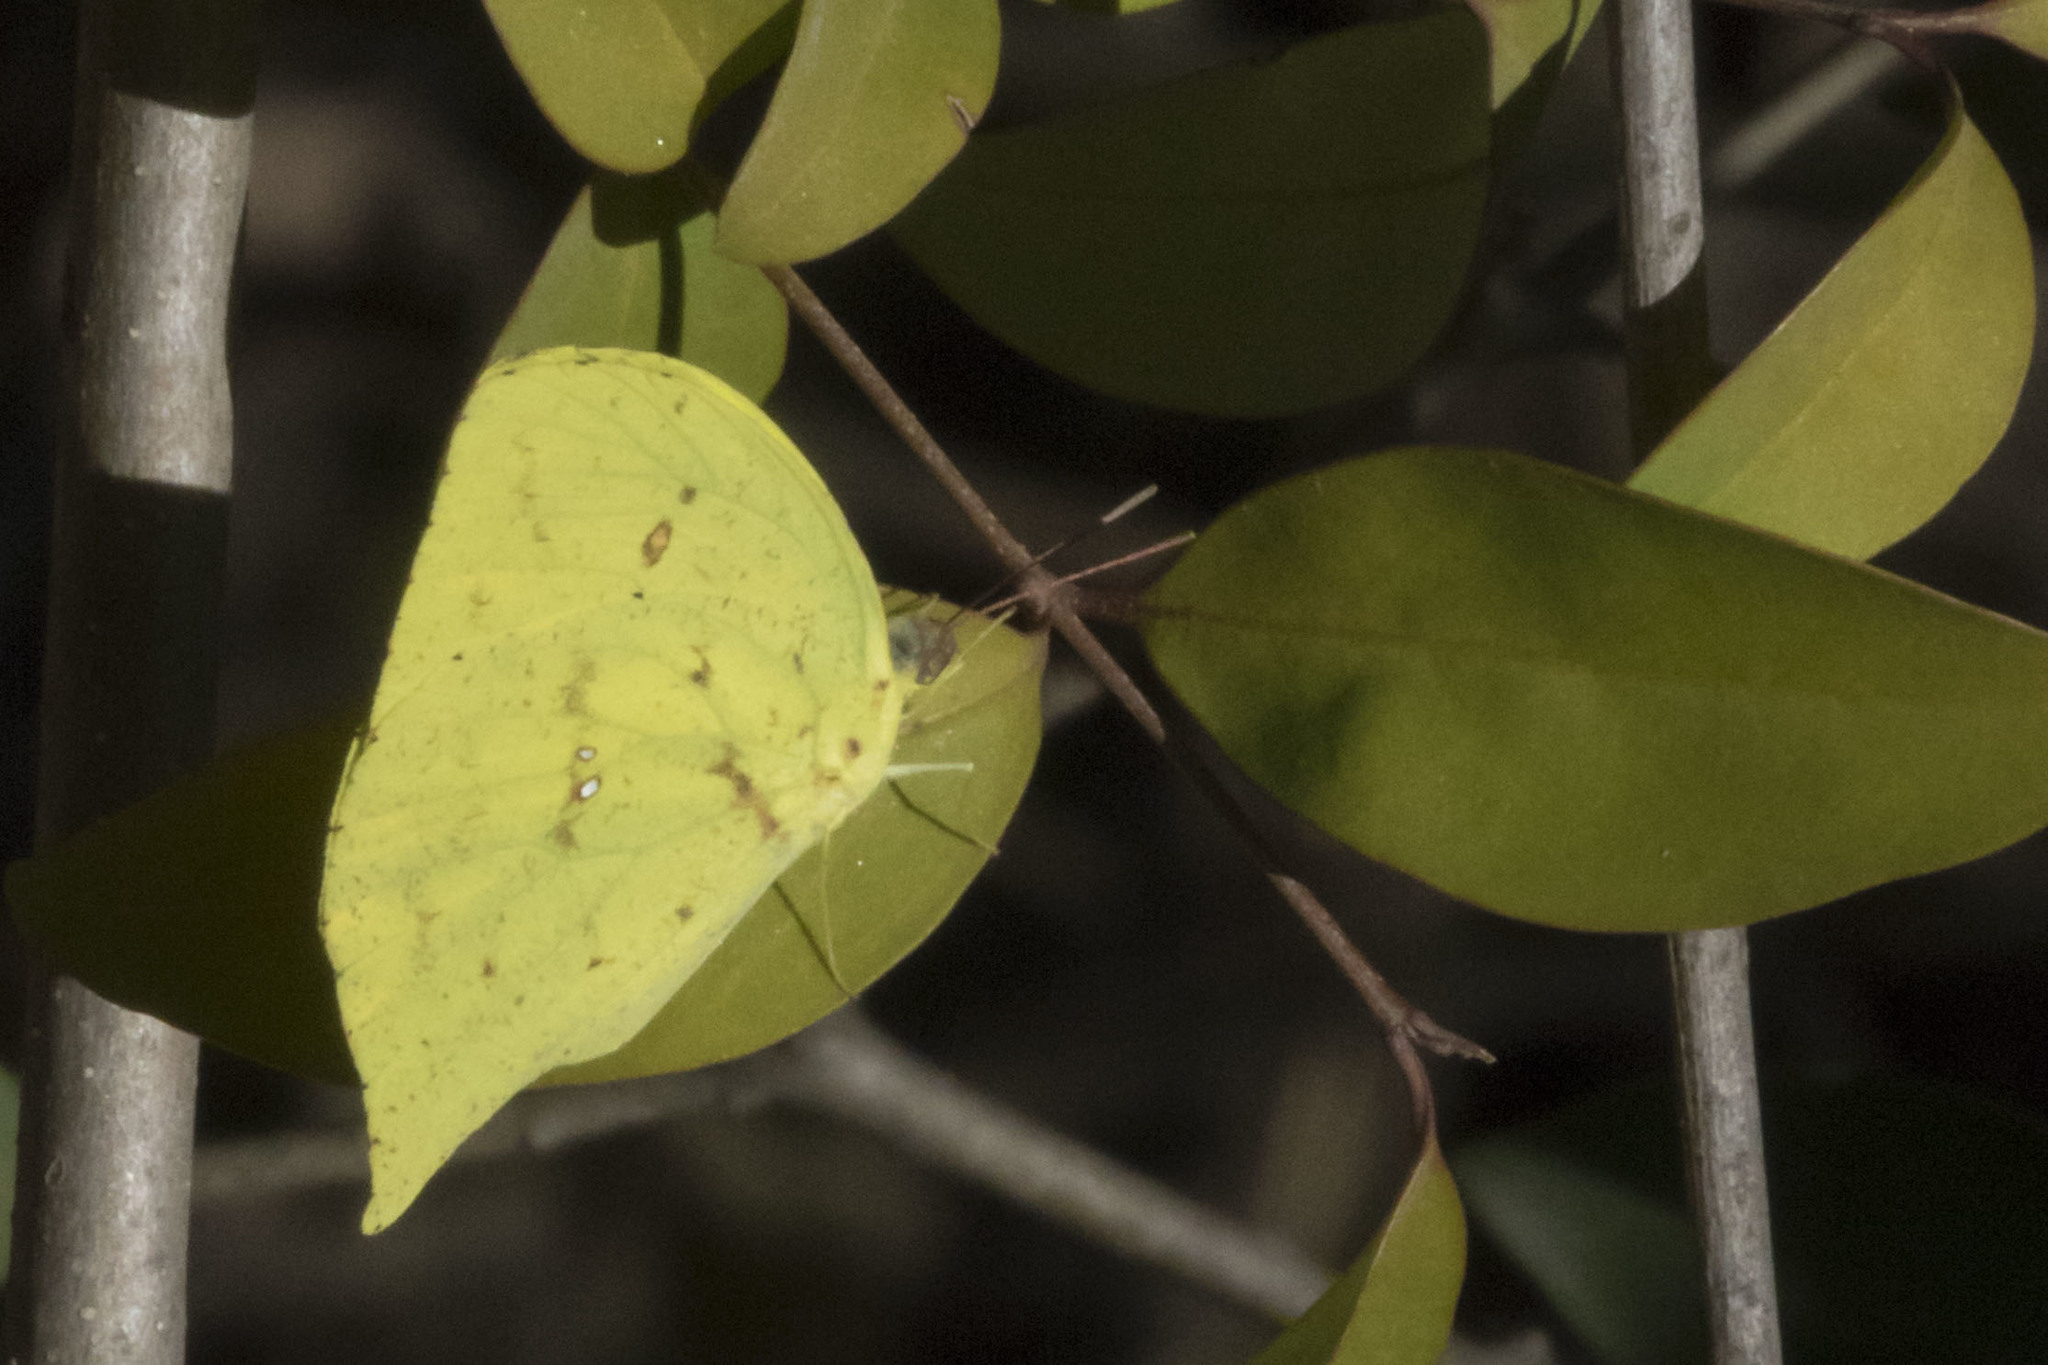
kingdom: Animalia
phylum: Arthropoda
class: Insecta
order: Lepidoptera
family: Pieridae
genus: Phoebis
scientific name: Phoebis neocypris
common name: Tailed sulphur
